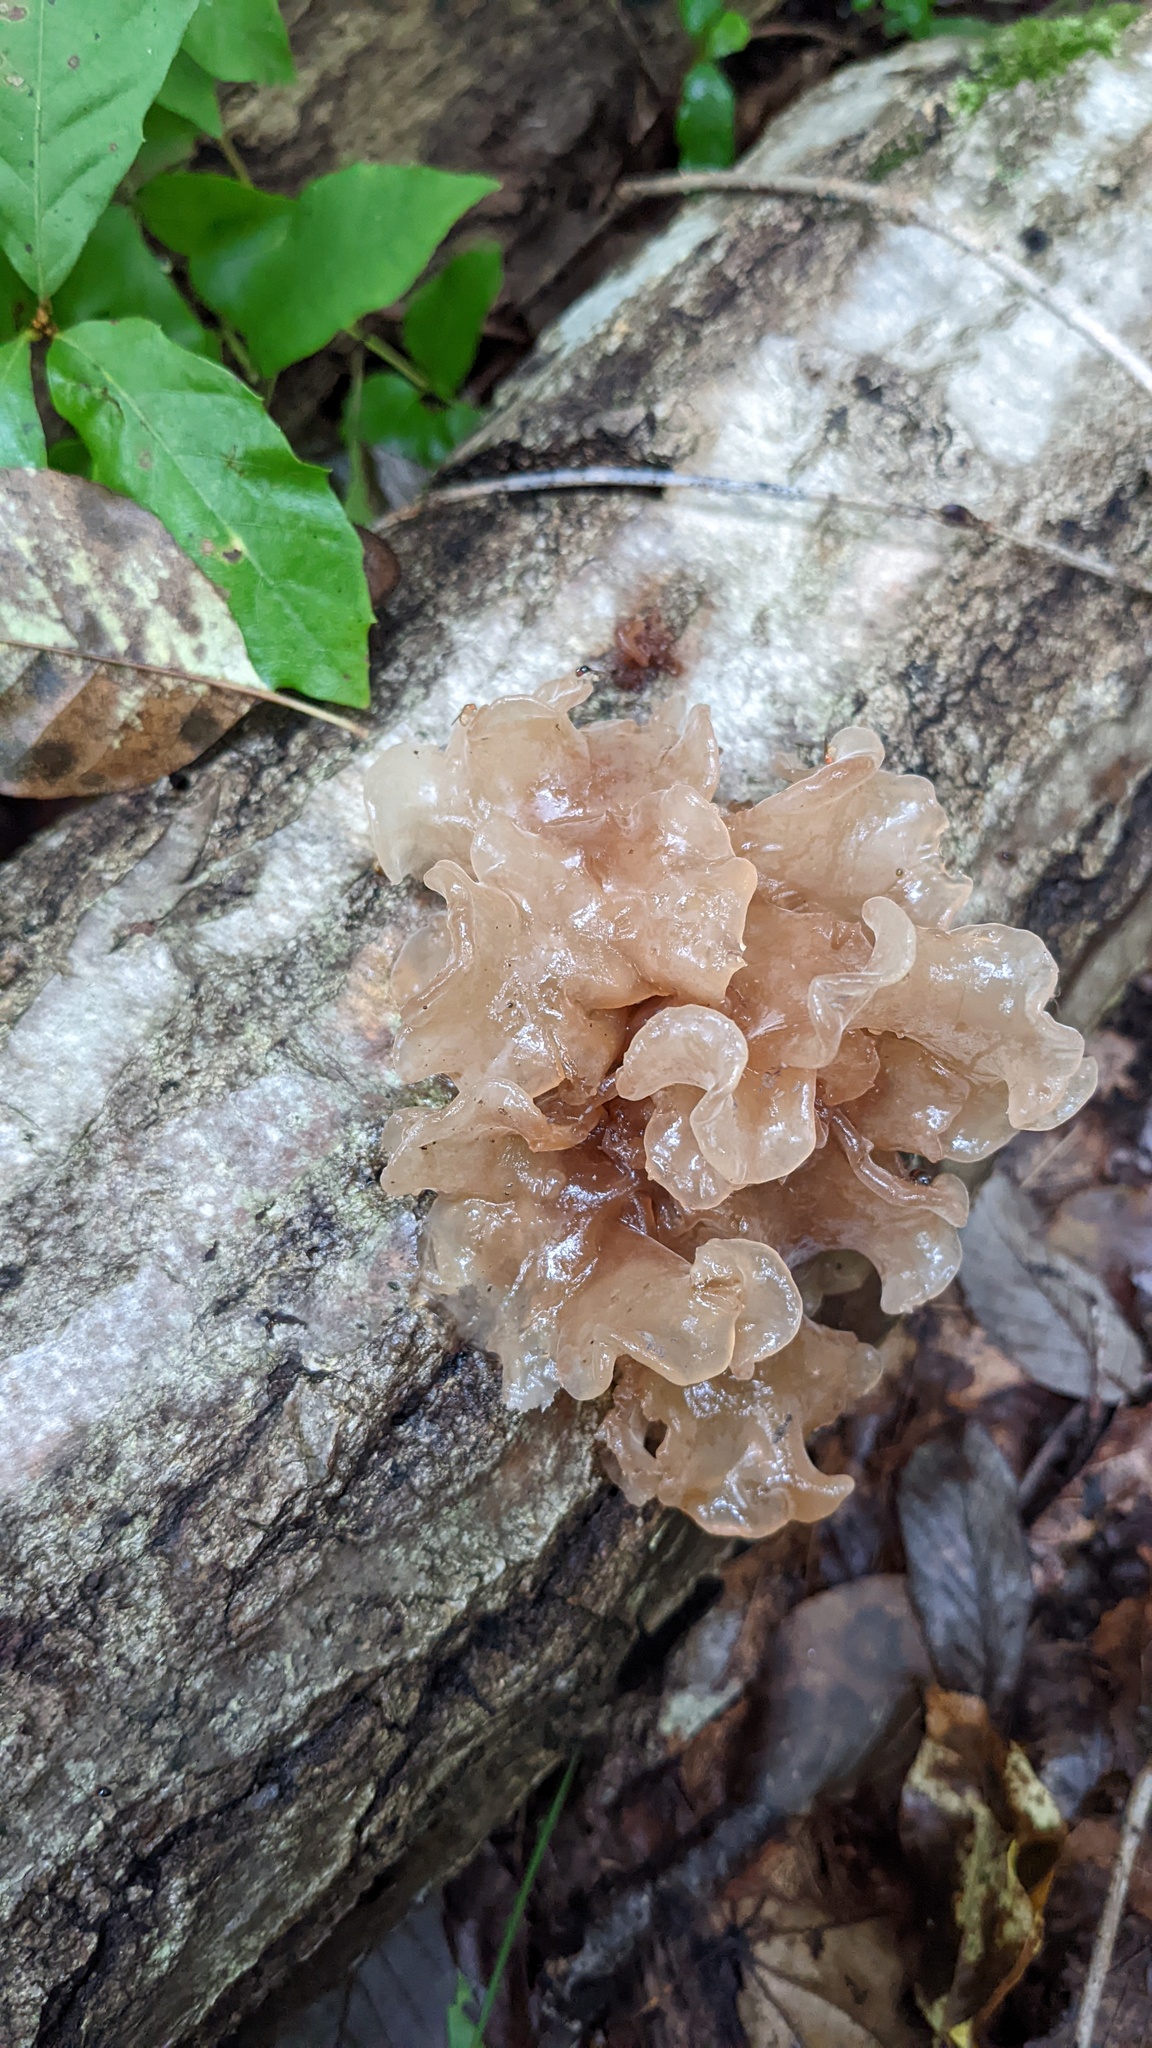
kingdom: Fungi
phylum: Basidiomycota
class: Tremellomycetes
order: Tremellales
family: Tremellaceae
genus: Phaeotremella
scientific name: Phaeotremella foliacea
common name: Leafy brain
